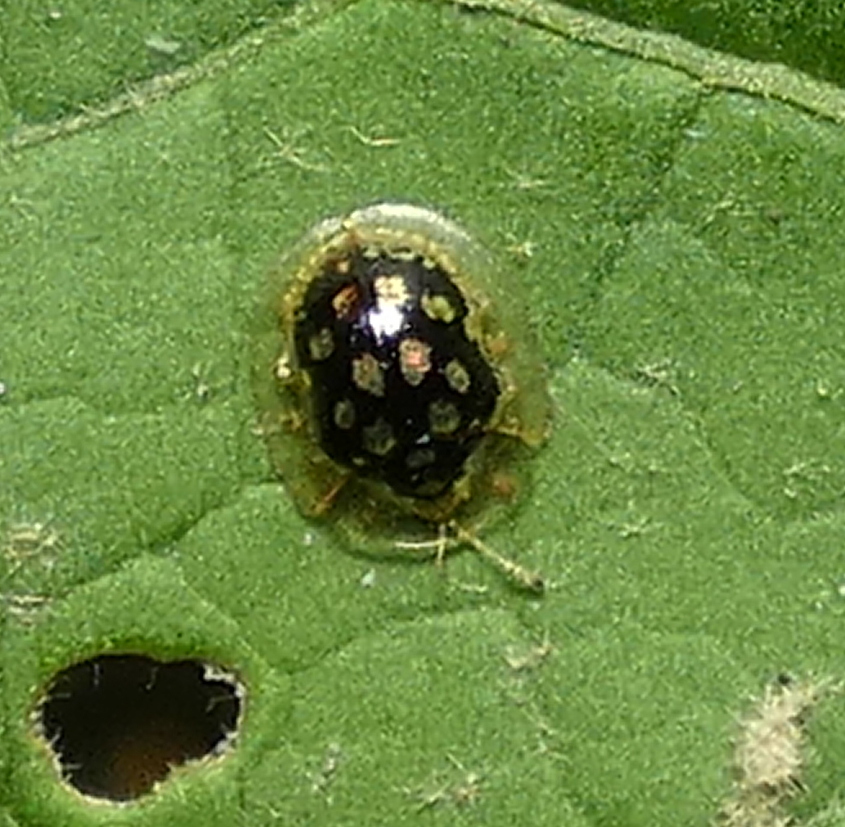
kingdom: Animalia
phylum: Arthropoda
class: Insecta
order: Coleoptera
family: Chrysomelidae
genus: Plagiometriona
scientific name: Plagiometriona microcera
